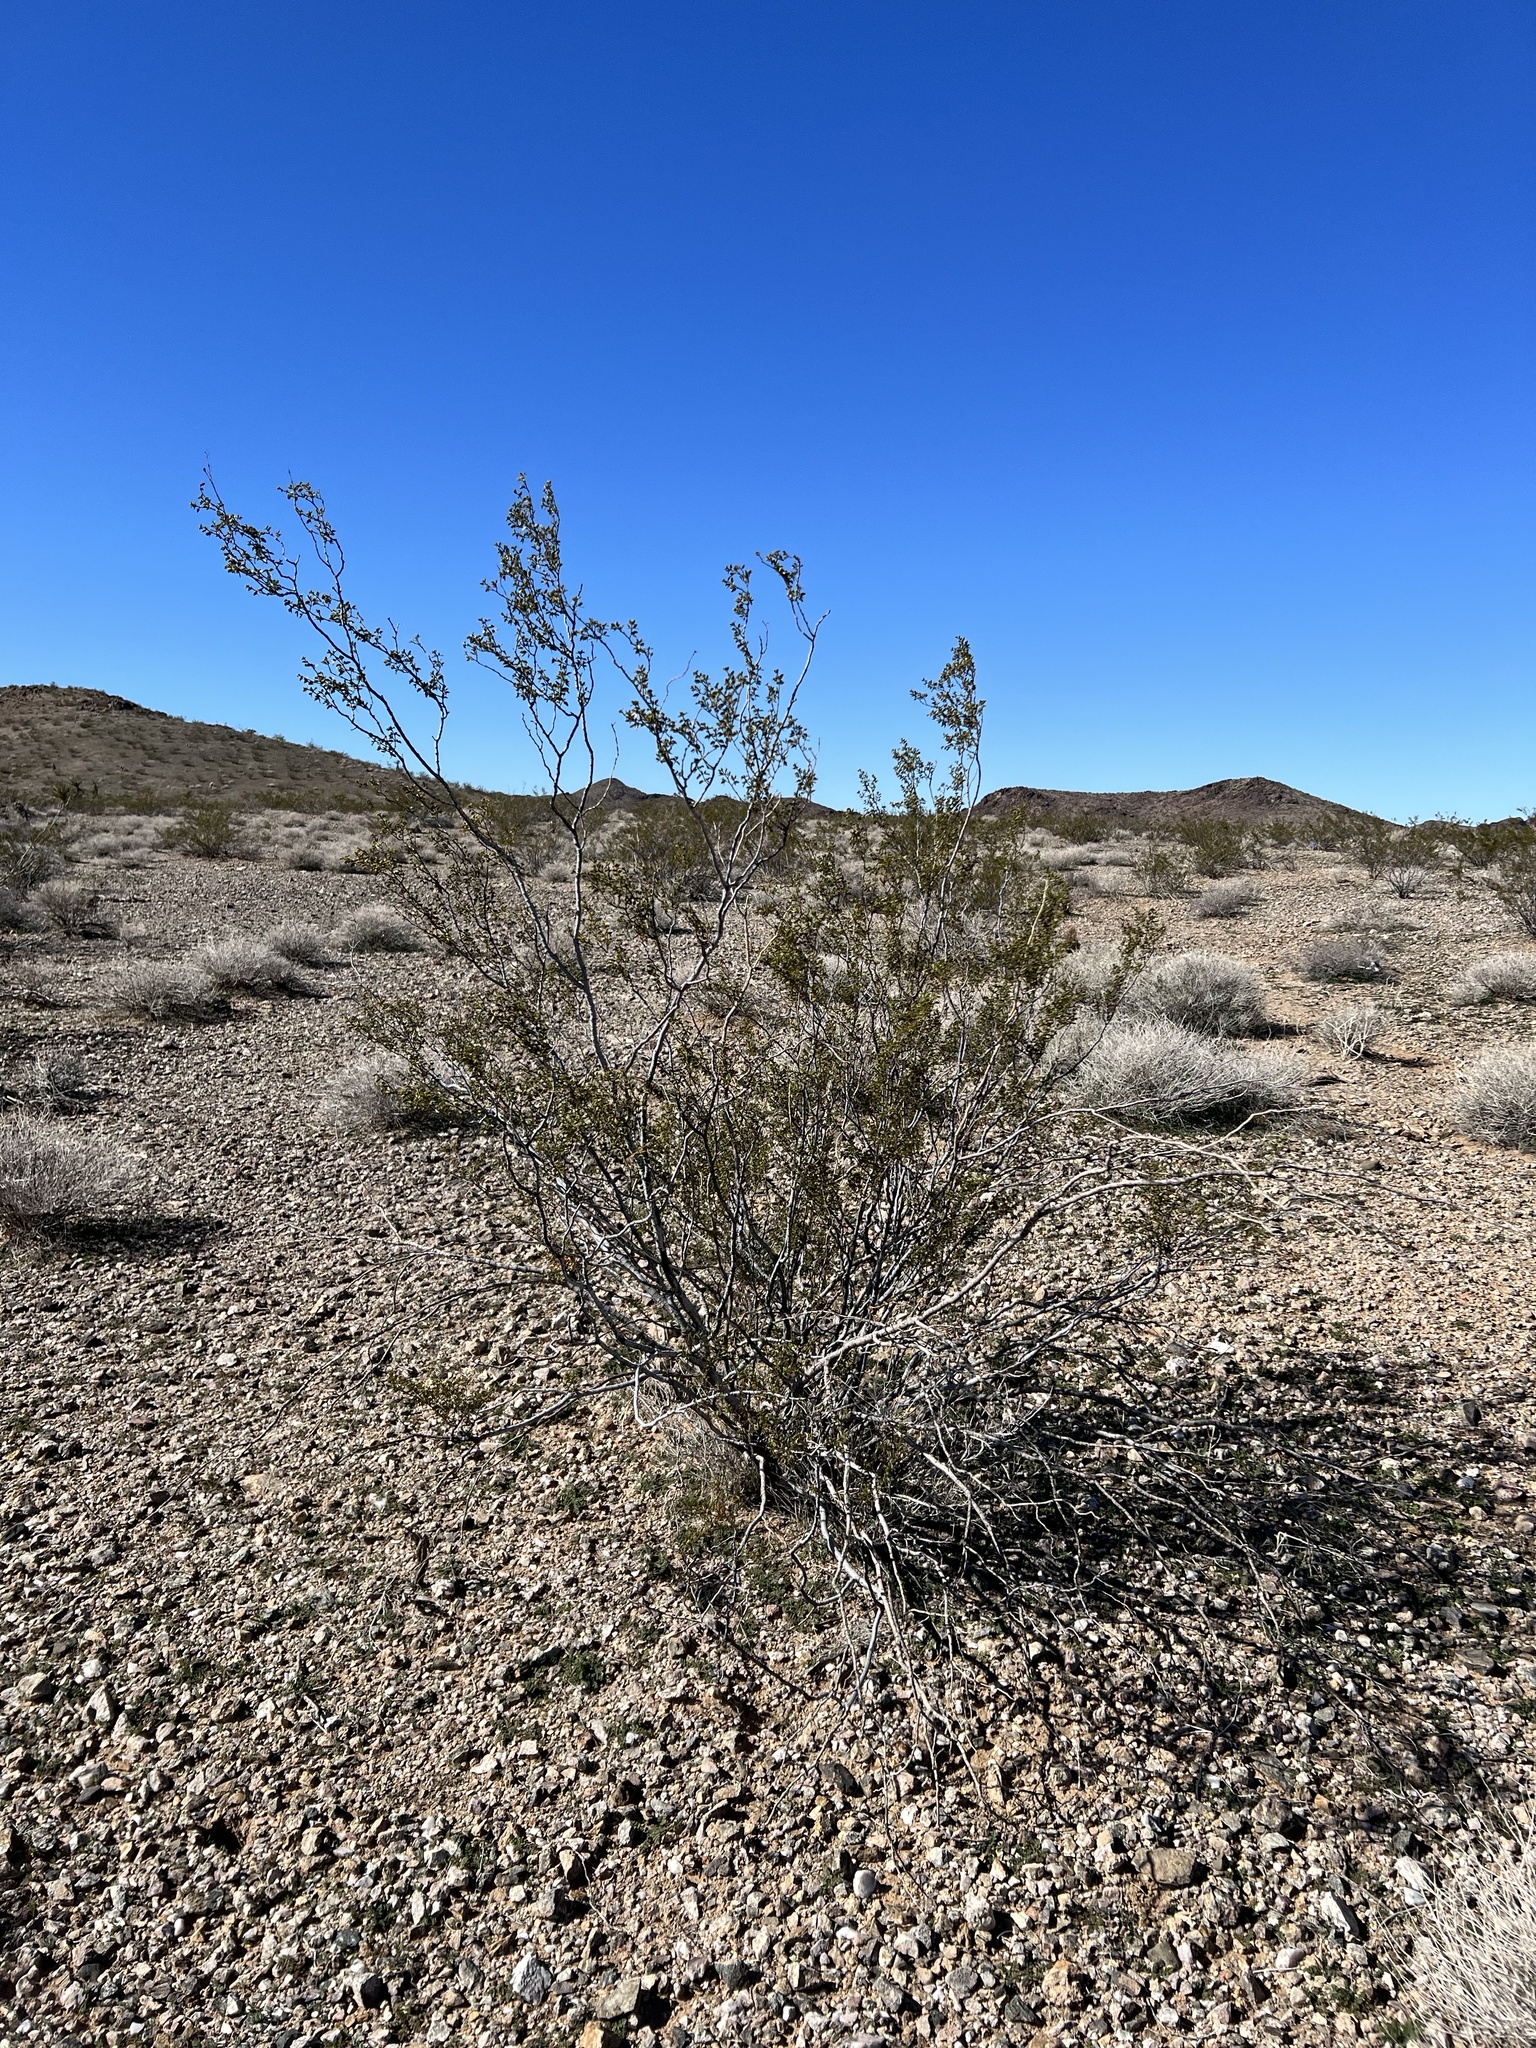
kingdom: Plantae
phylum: Tracheophyta
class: Magnoliopsida
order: Zygophyllales
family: Zygophyllaceae
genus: Larrea
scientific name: Larrea tridentata
